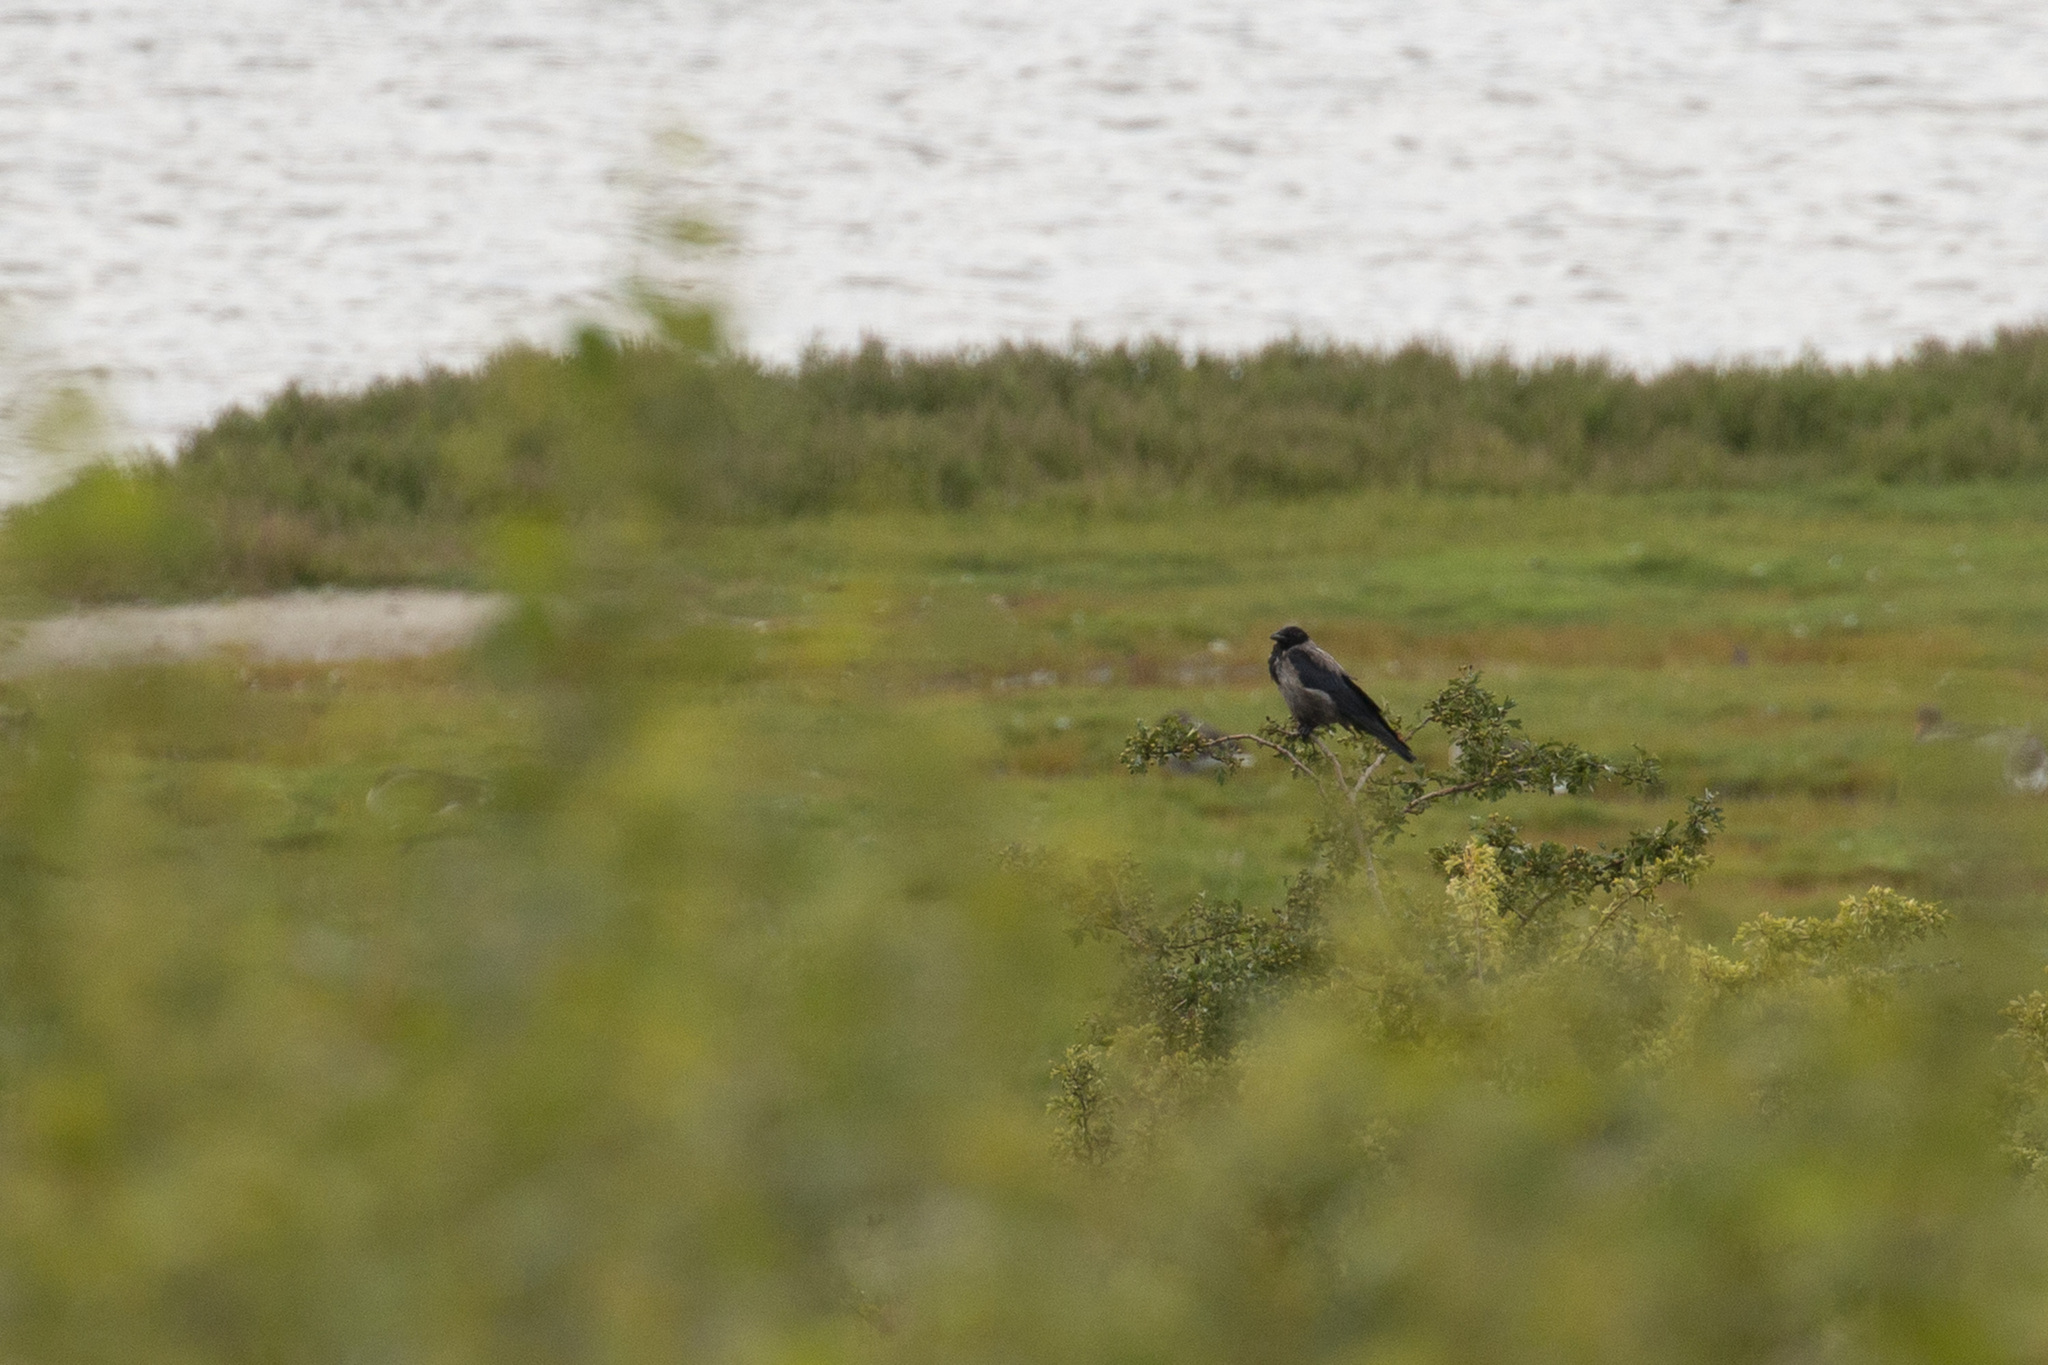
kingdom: Animalia
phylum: Chordata
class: Aves
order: Passeriformes
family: Corvidae
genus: Corvus
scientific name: Corvus cornix
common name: Hooded crow
